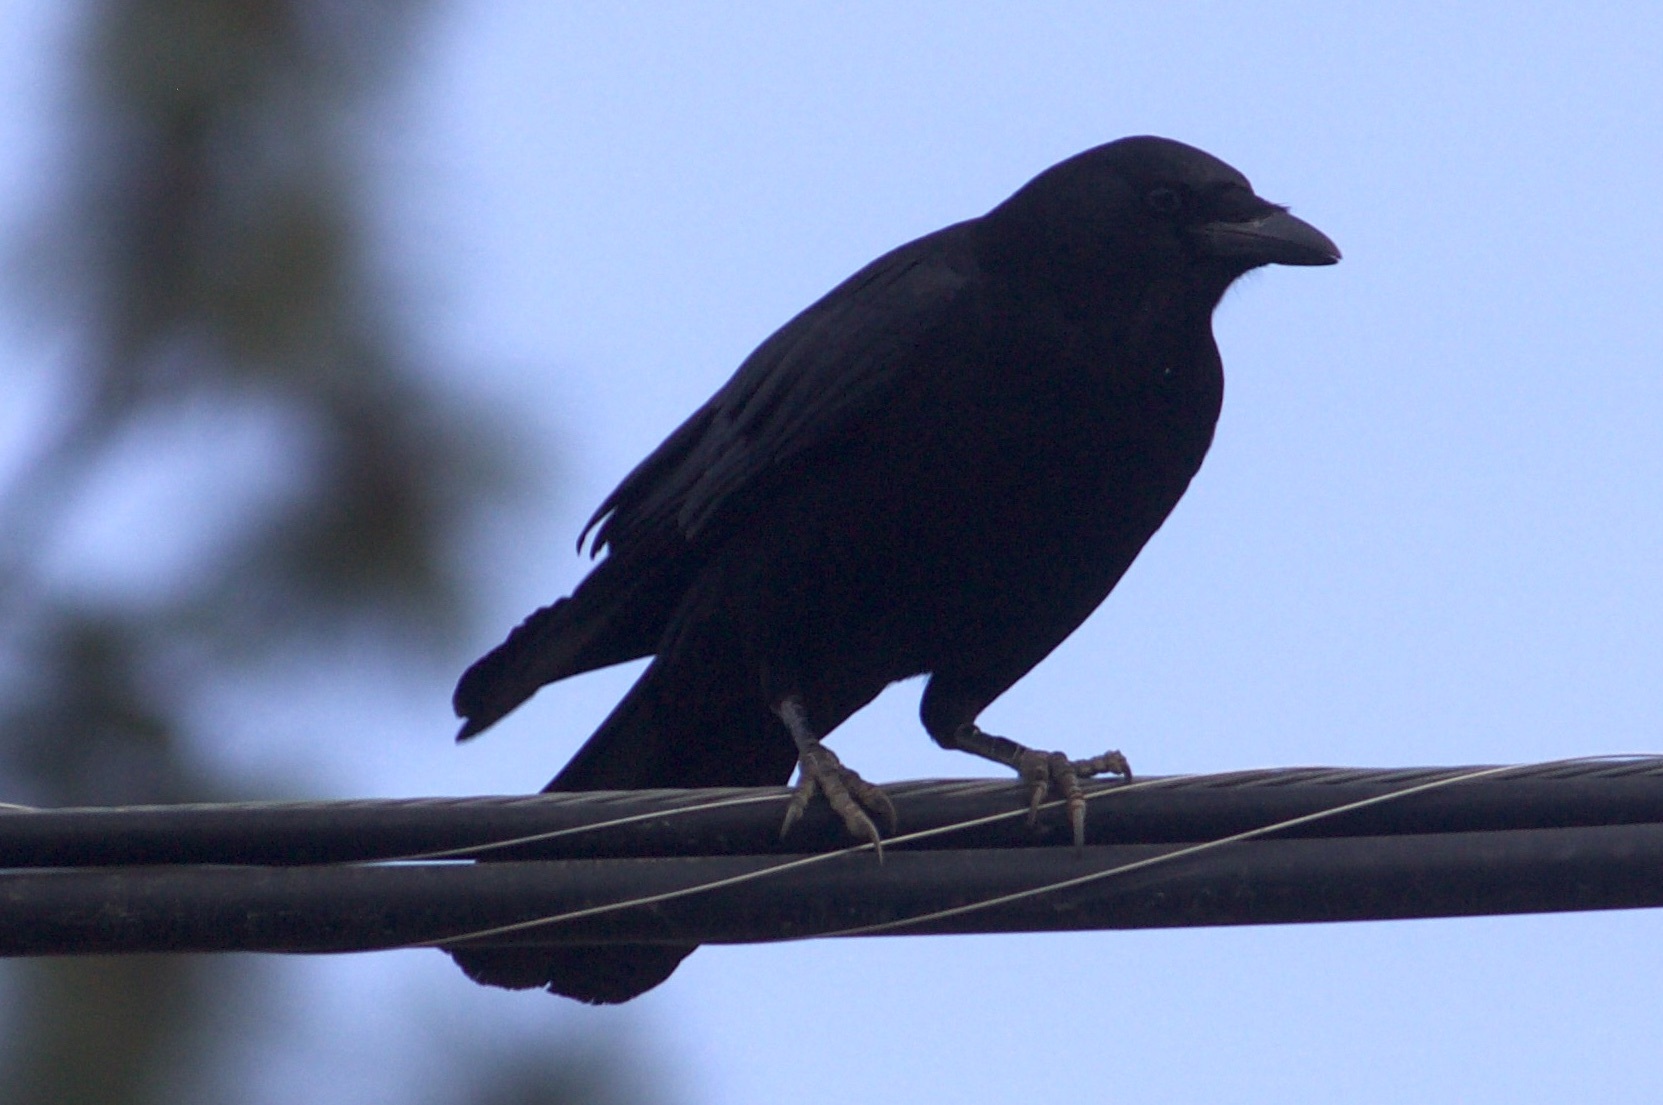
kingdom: Animalia
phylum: Chordata
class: Aves
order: Passeriformes
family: Corvidae
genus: Corvus
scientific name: Corvus brachyrhynchos
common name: American crow
